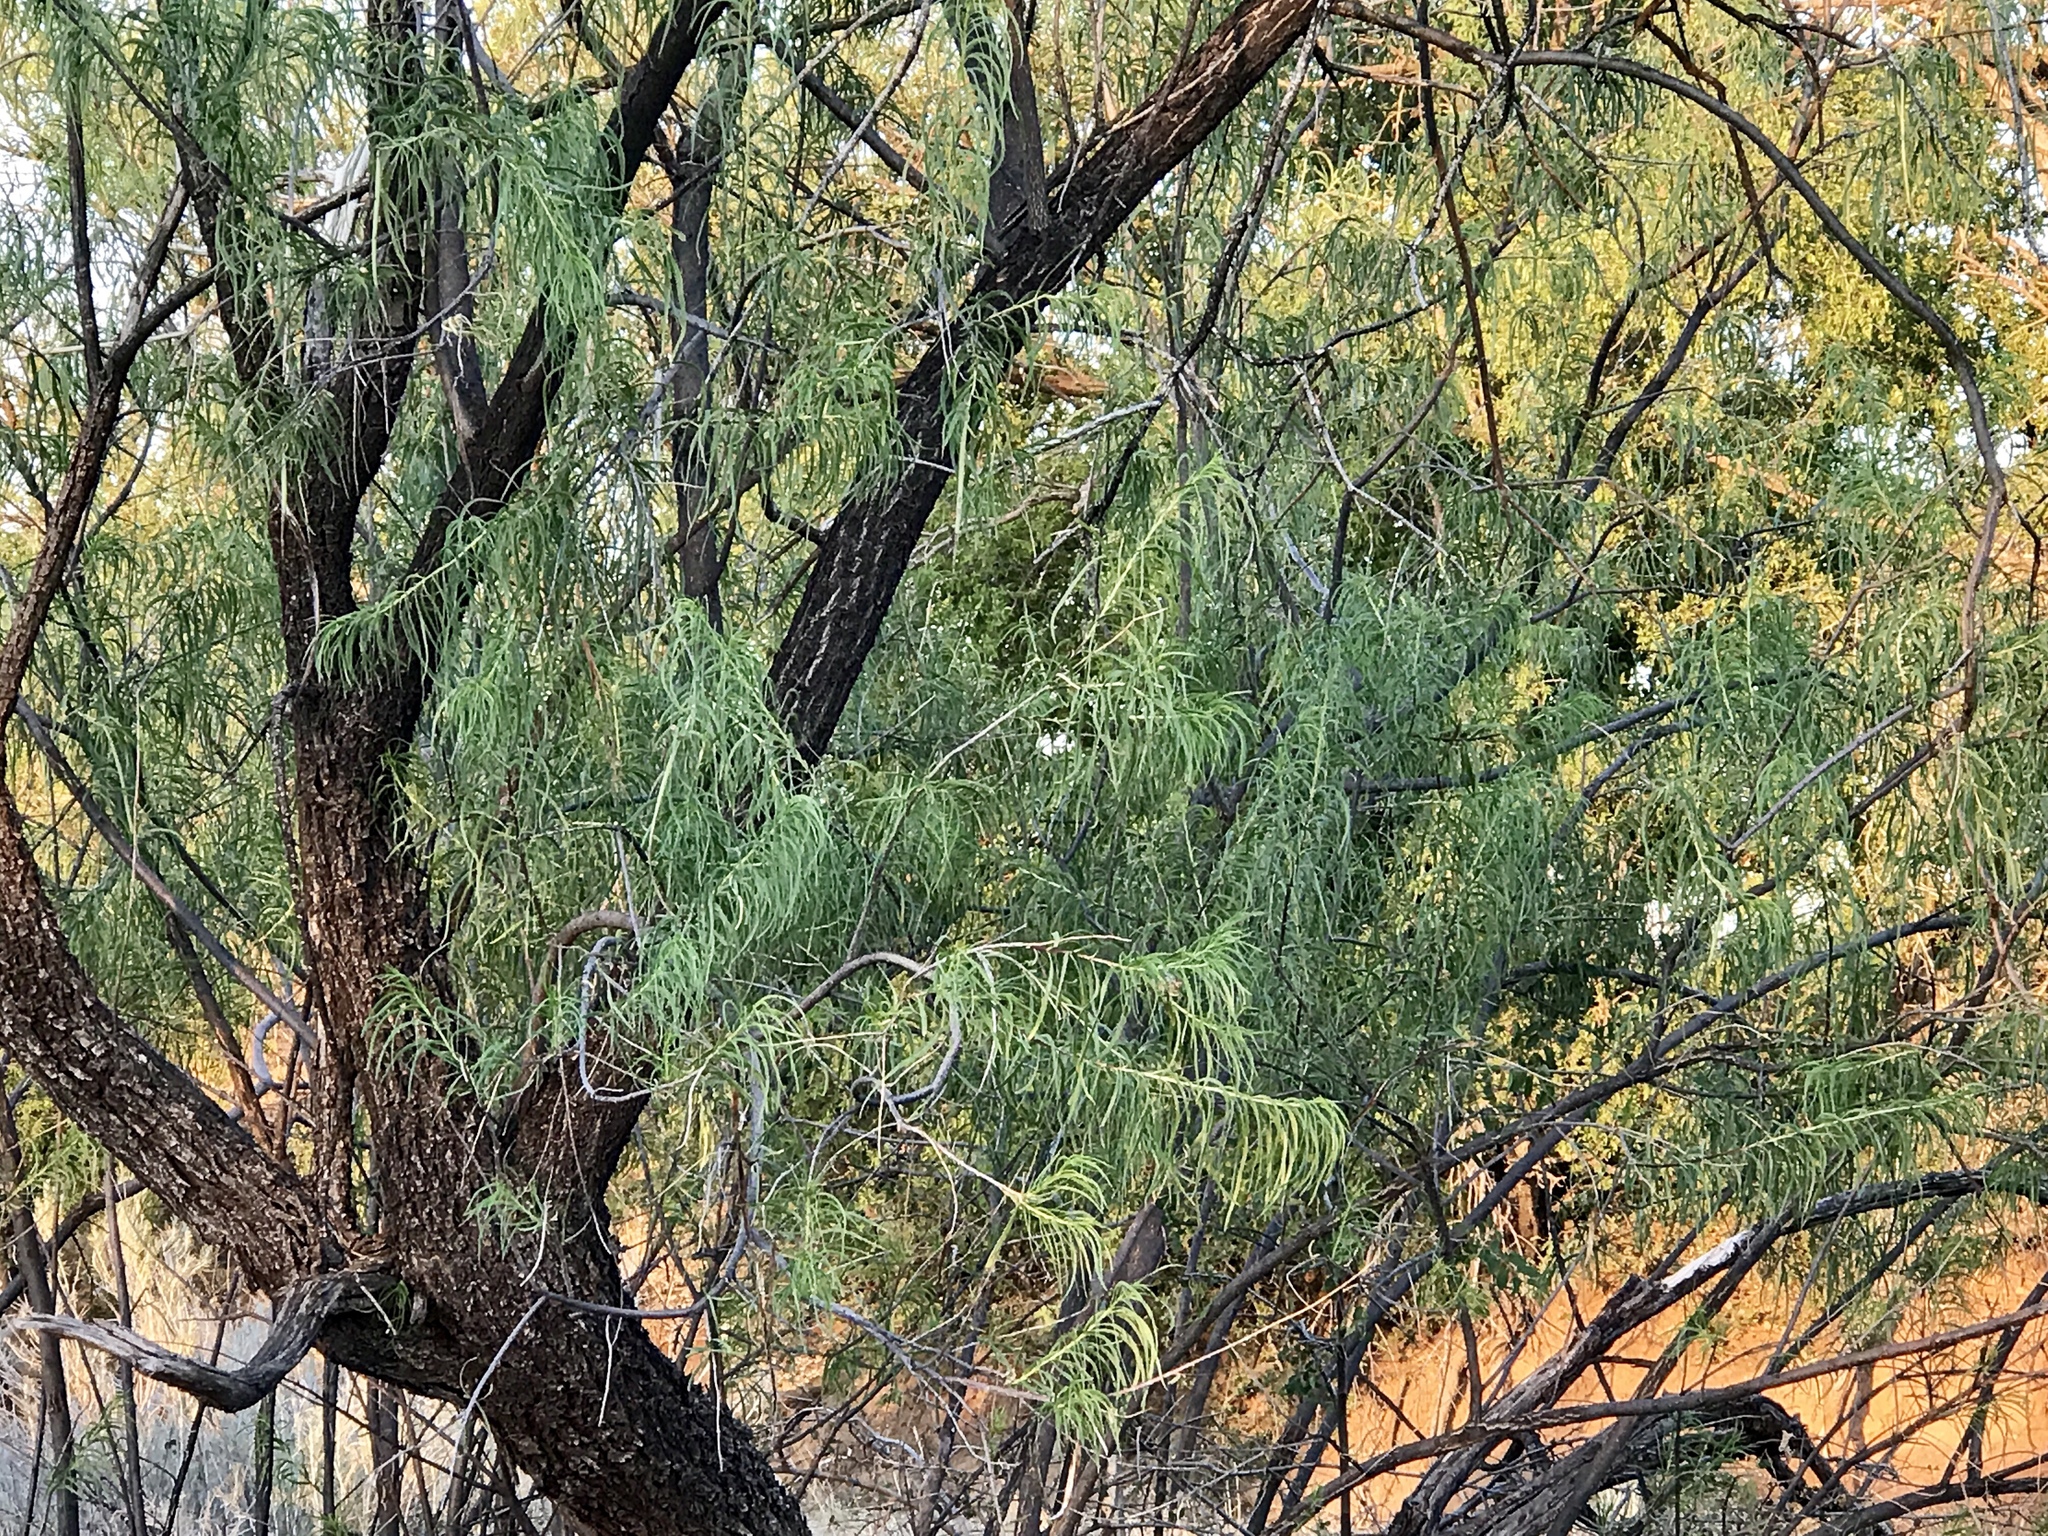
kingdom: Plantae
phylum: Tracheophyta
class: Magnoliopsida
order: Lamiales
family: Bignoniaceae
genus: Chilopsis
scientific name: Chilopsis linearis
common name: Desert-willow
